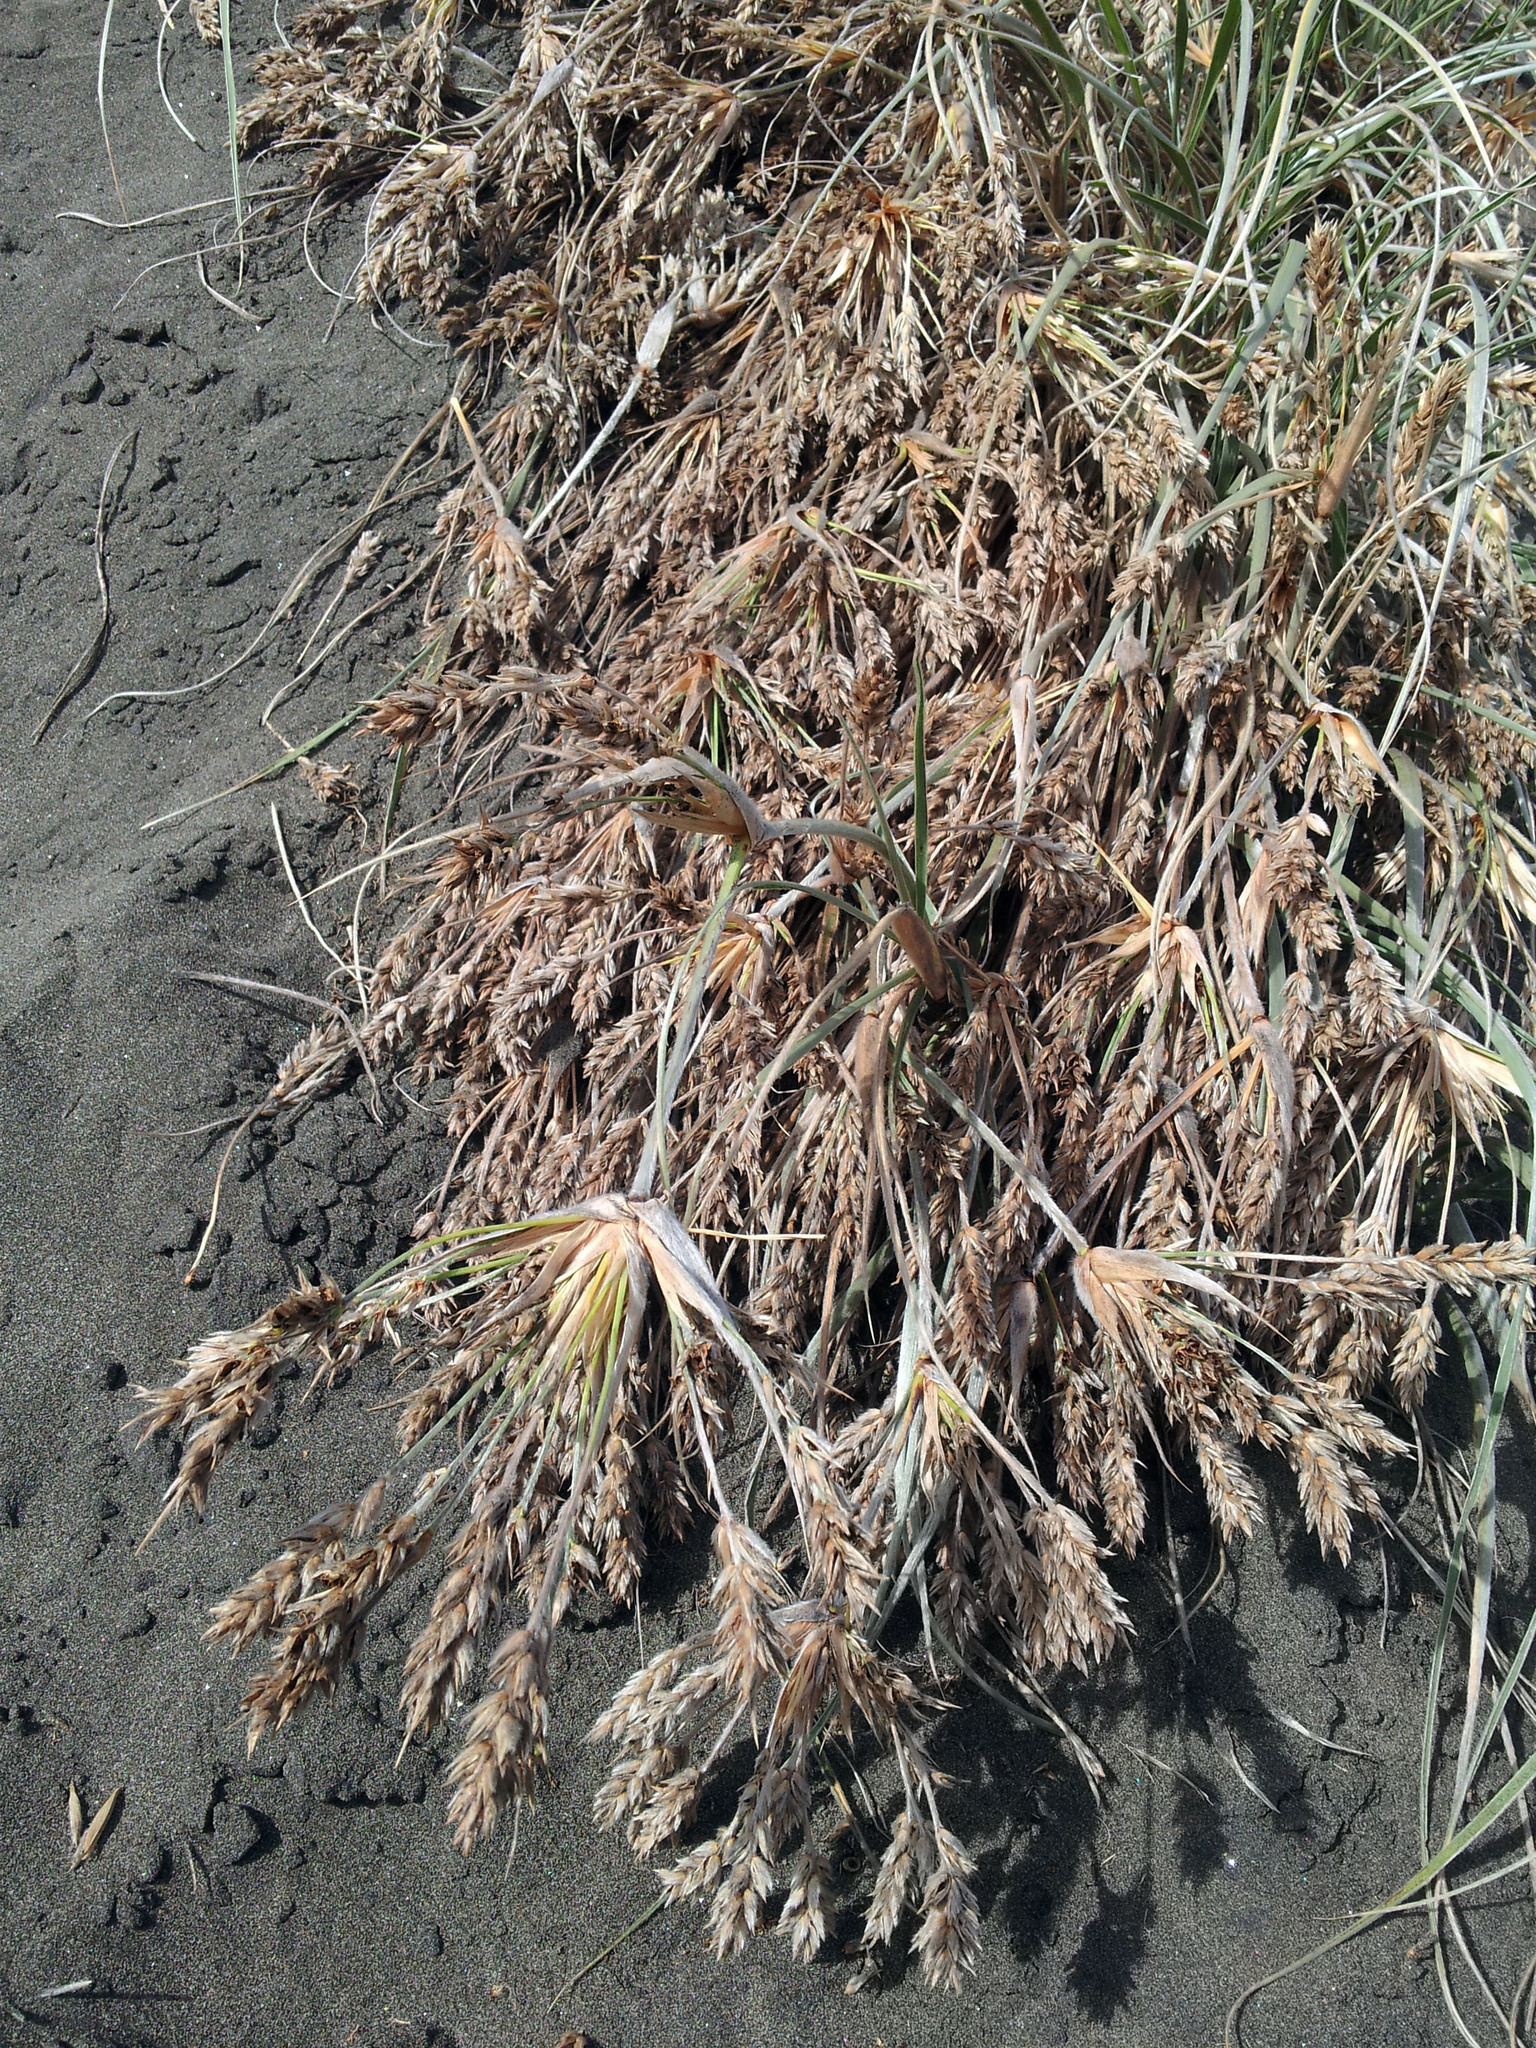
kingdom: Plantae
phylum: Tracheophyta
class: Liliopsida
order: Poales
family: Poaceae
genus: Spinifex
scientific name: Spinifex sericeus
